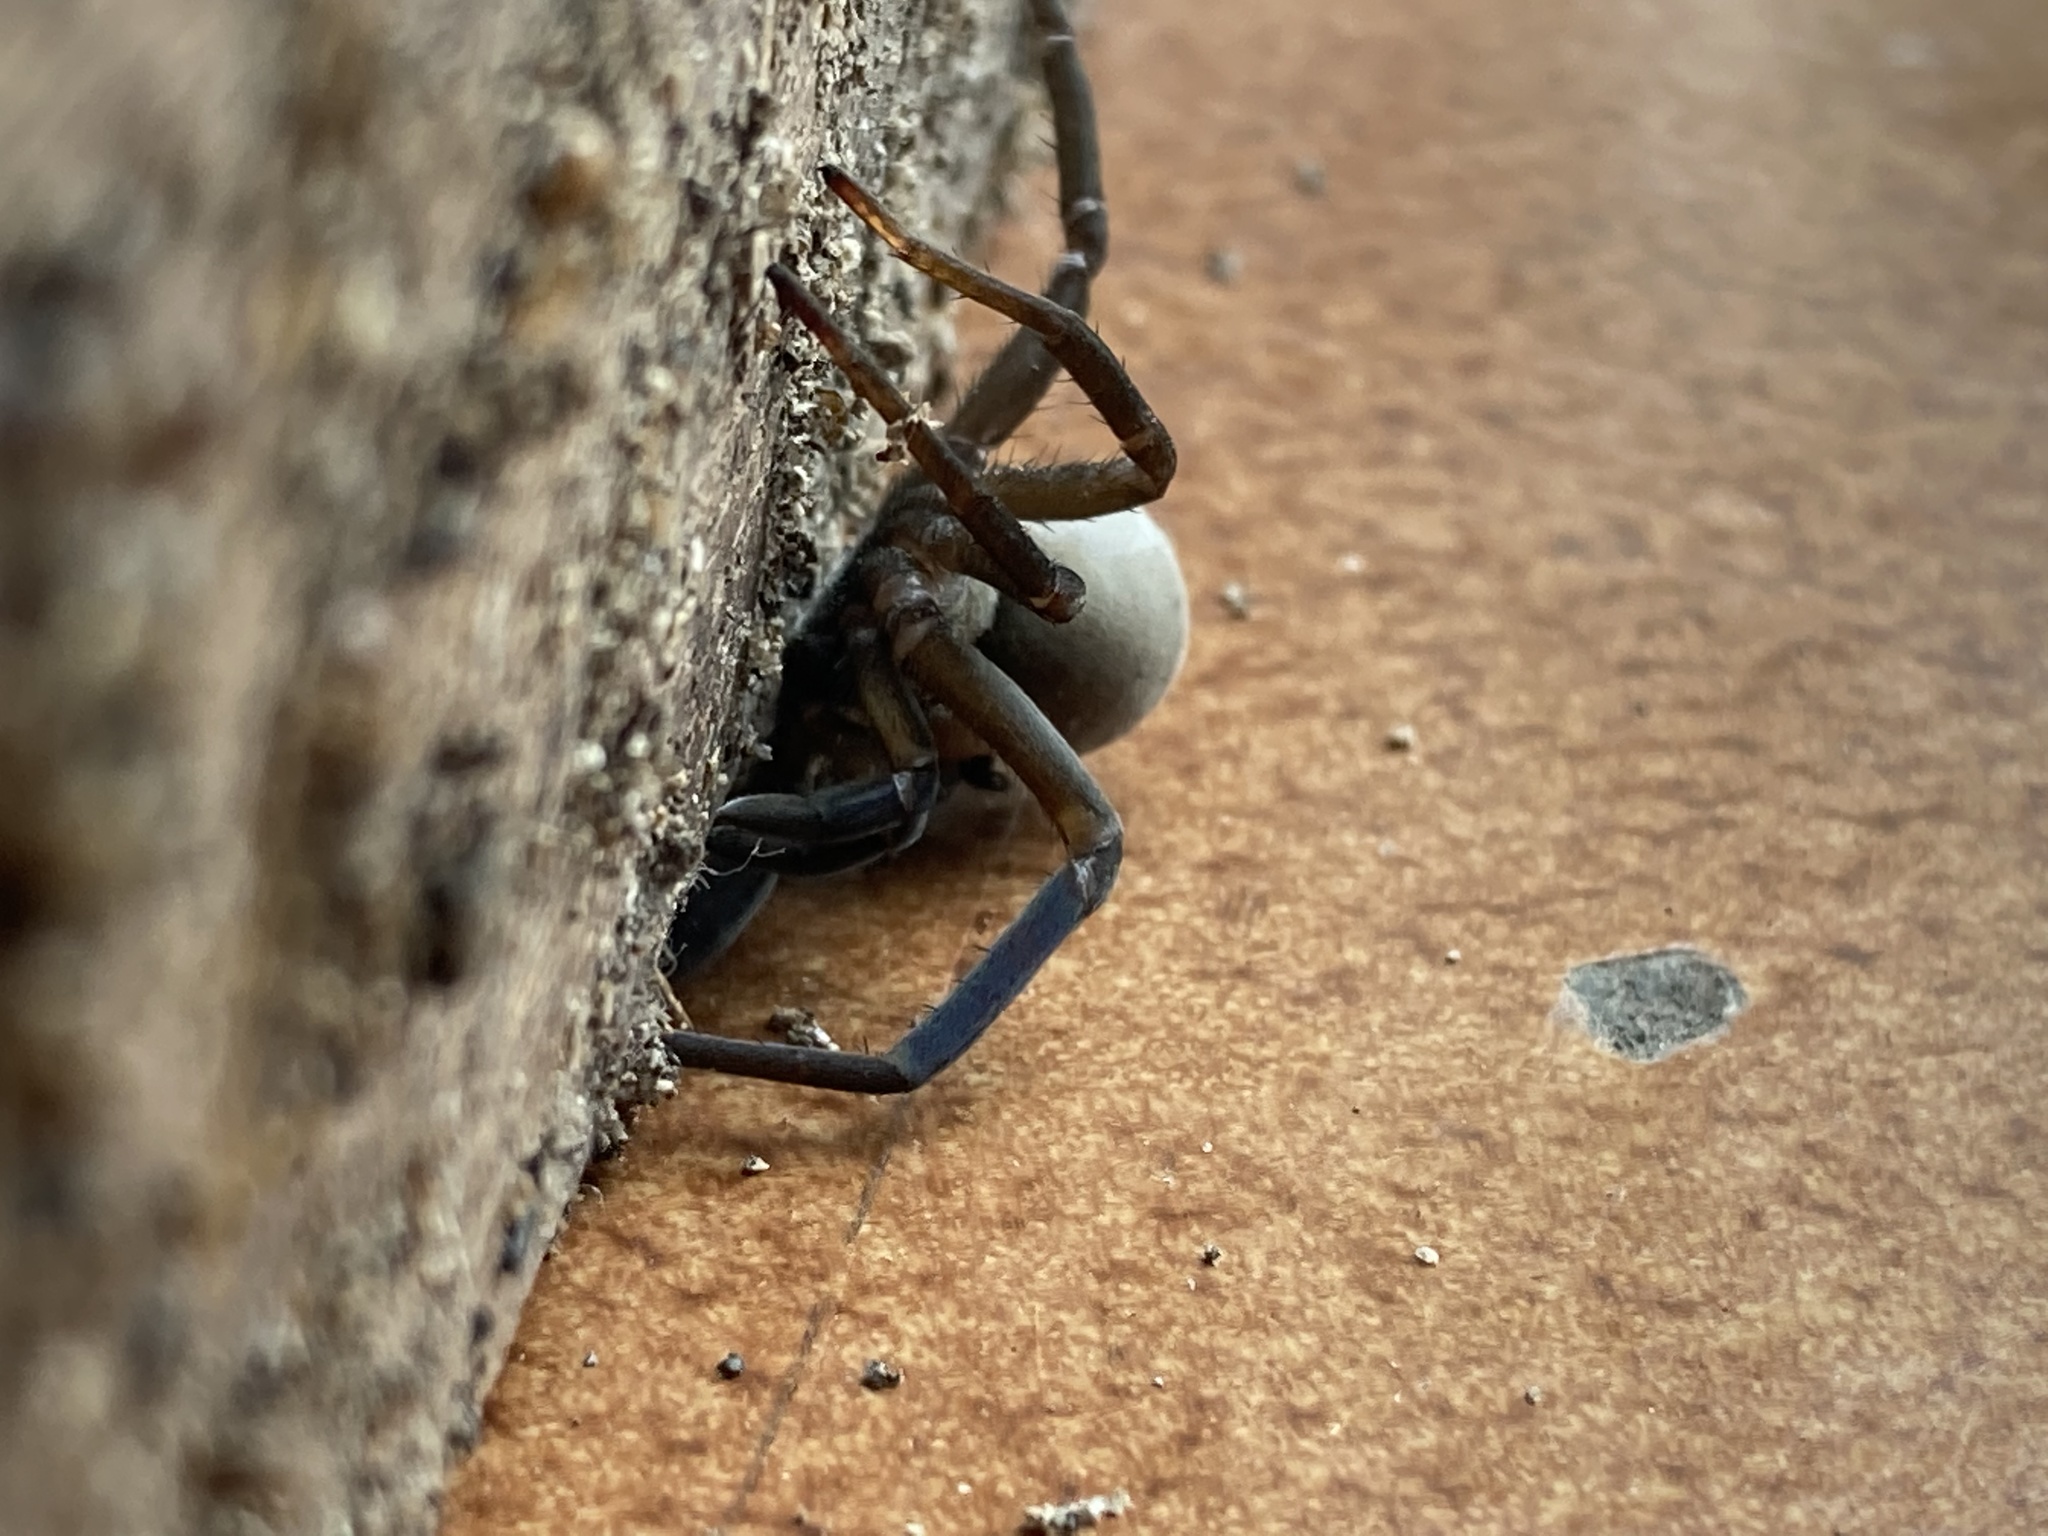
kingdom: Animalia
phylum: Arthropoda
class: Arachnida
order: Araneae
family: Filistatidae
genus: Kukulcania
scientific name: Kukulcania hibernalis
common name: Crevice weaver
